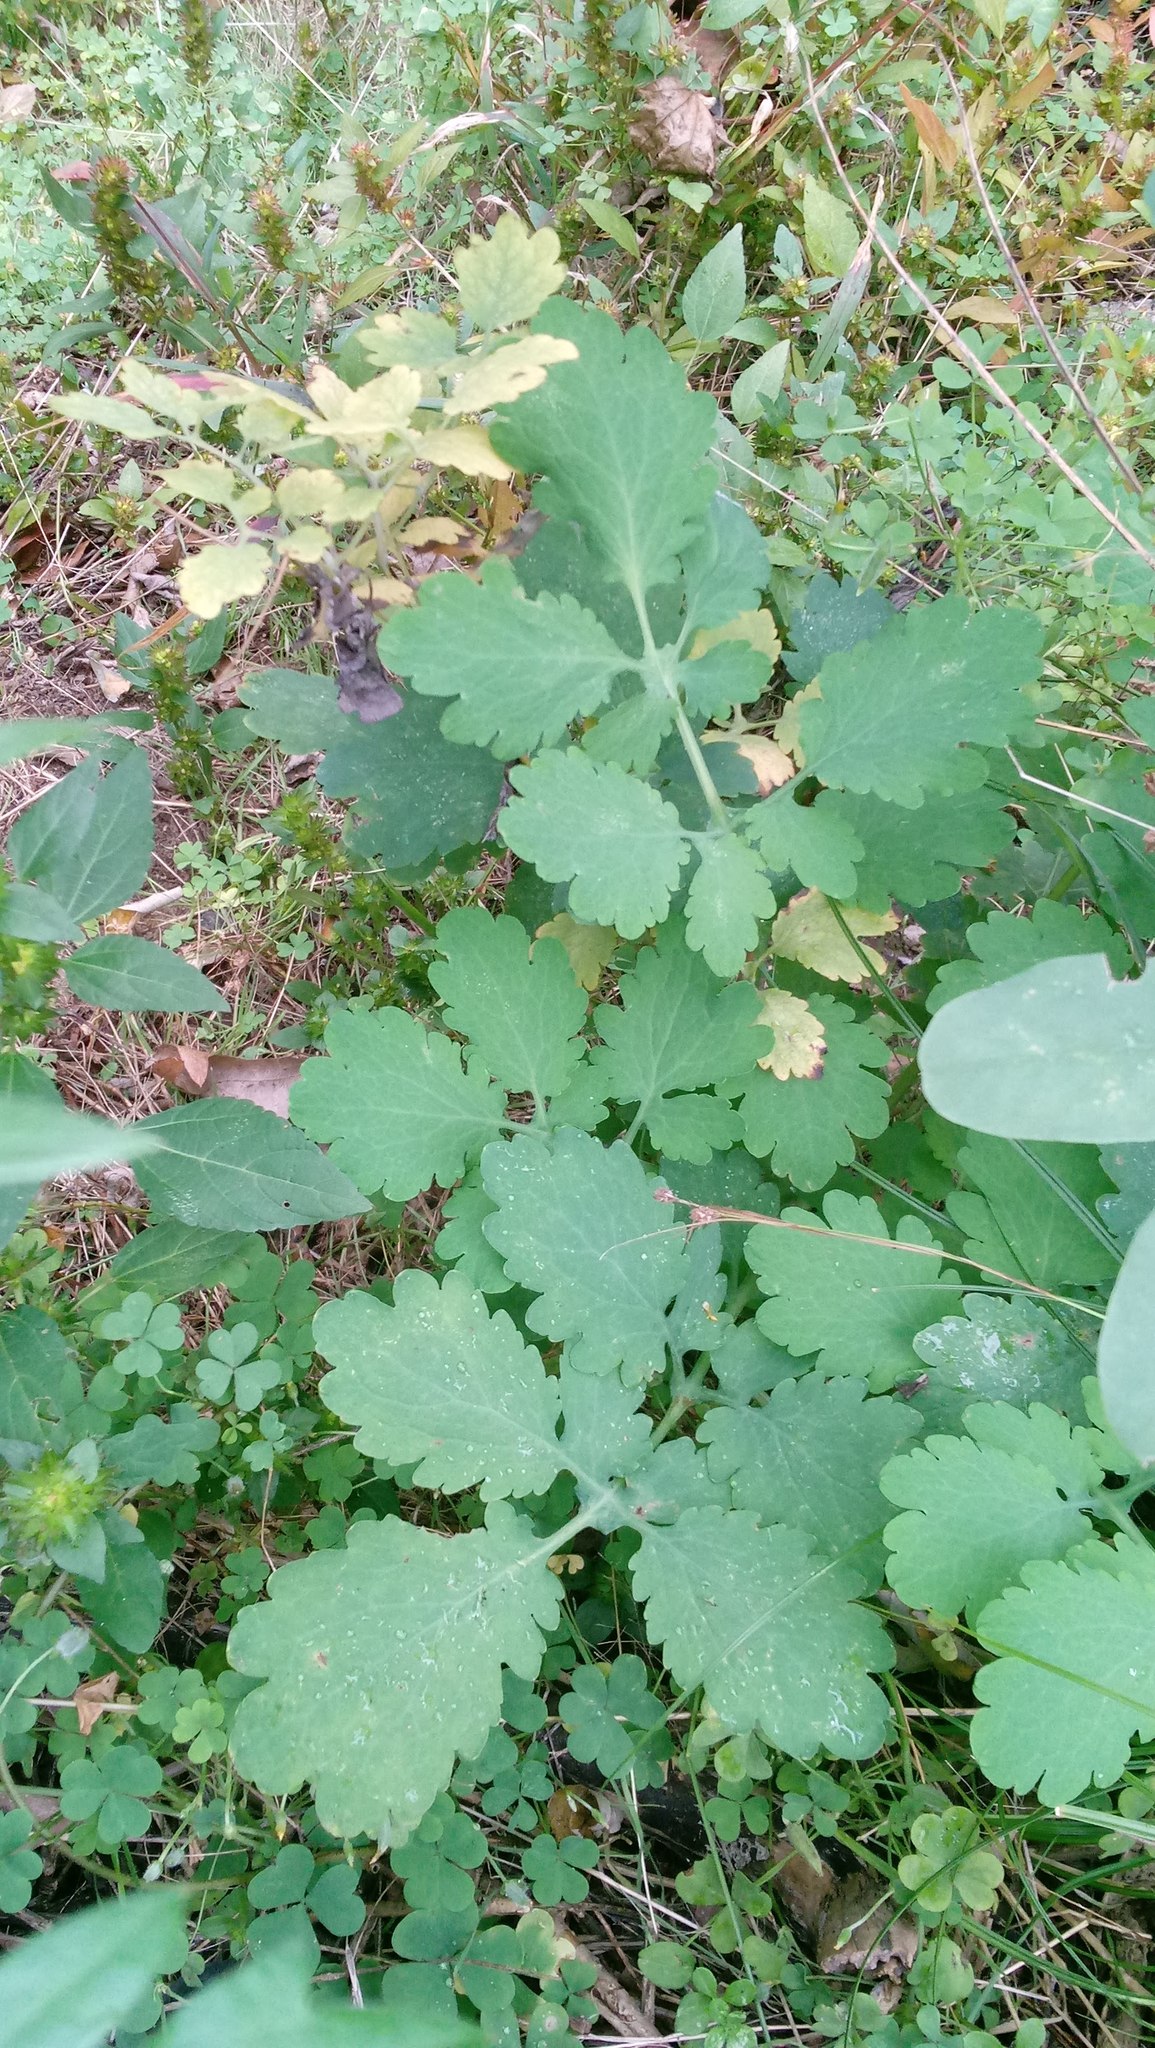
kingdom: Plantae
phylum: Tracheophyta
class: Magnoliopsida
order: Ranunculales
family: Papaveraceae
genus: Chelidonium
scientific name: Chelidonium majus
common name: Greater celandine
